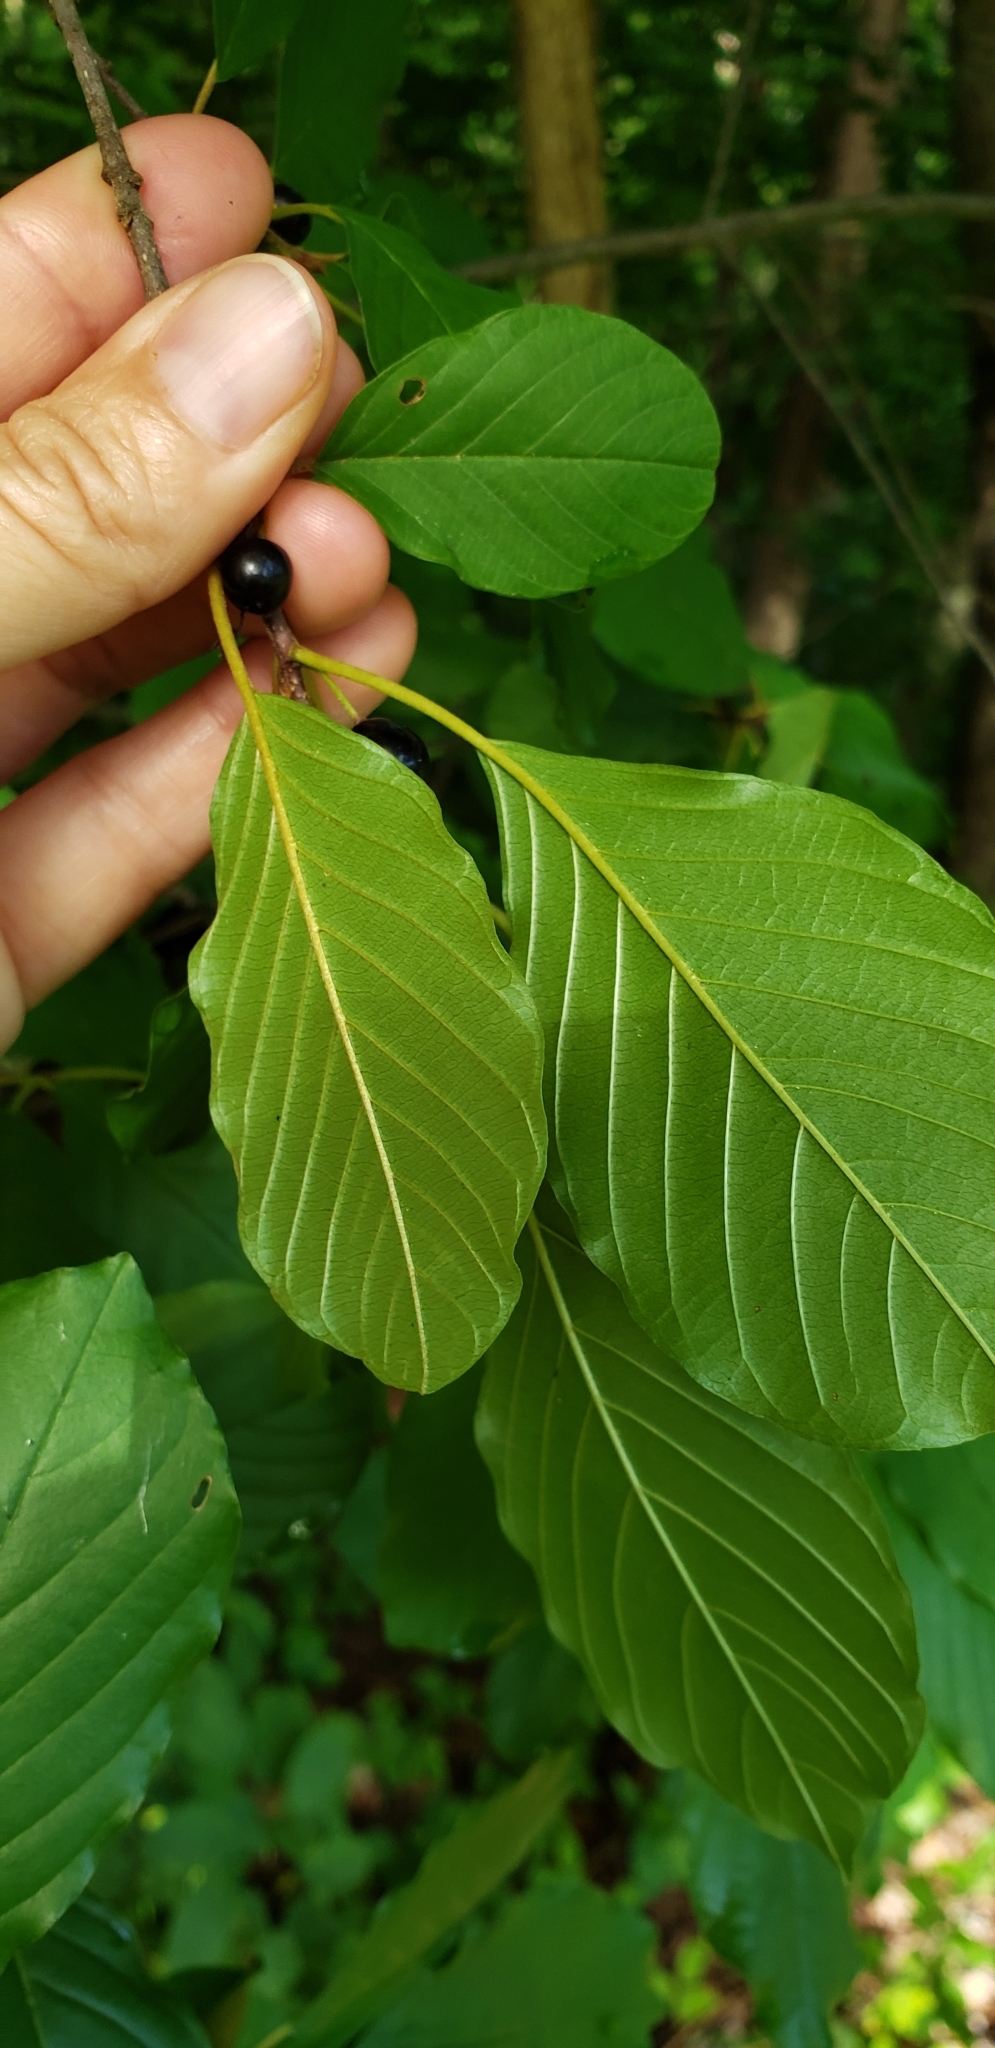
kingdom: Plantae
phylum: Tracheophyta
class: Magnoliopsida
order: Rosales
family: Rhamnaceae
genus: Frangula
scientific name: Frangula alnus
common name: Alder buckthorn
